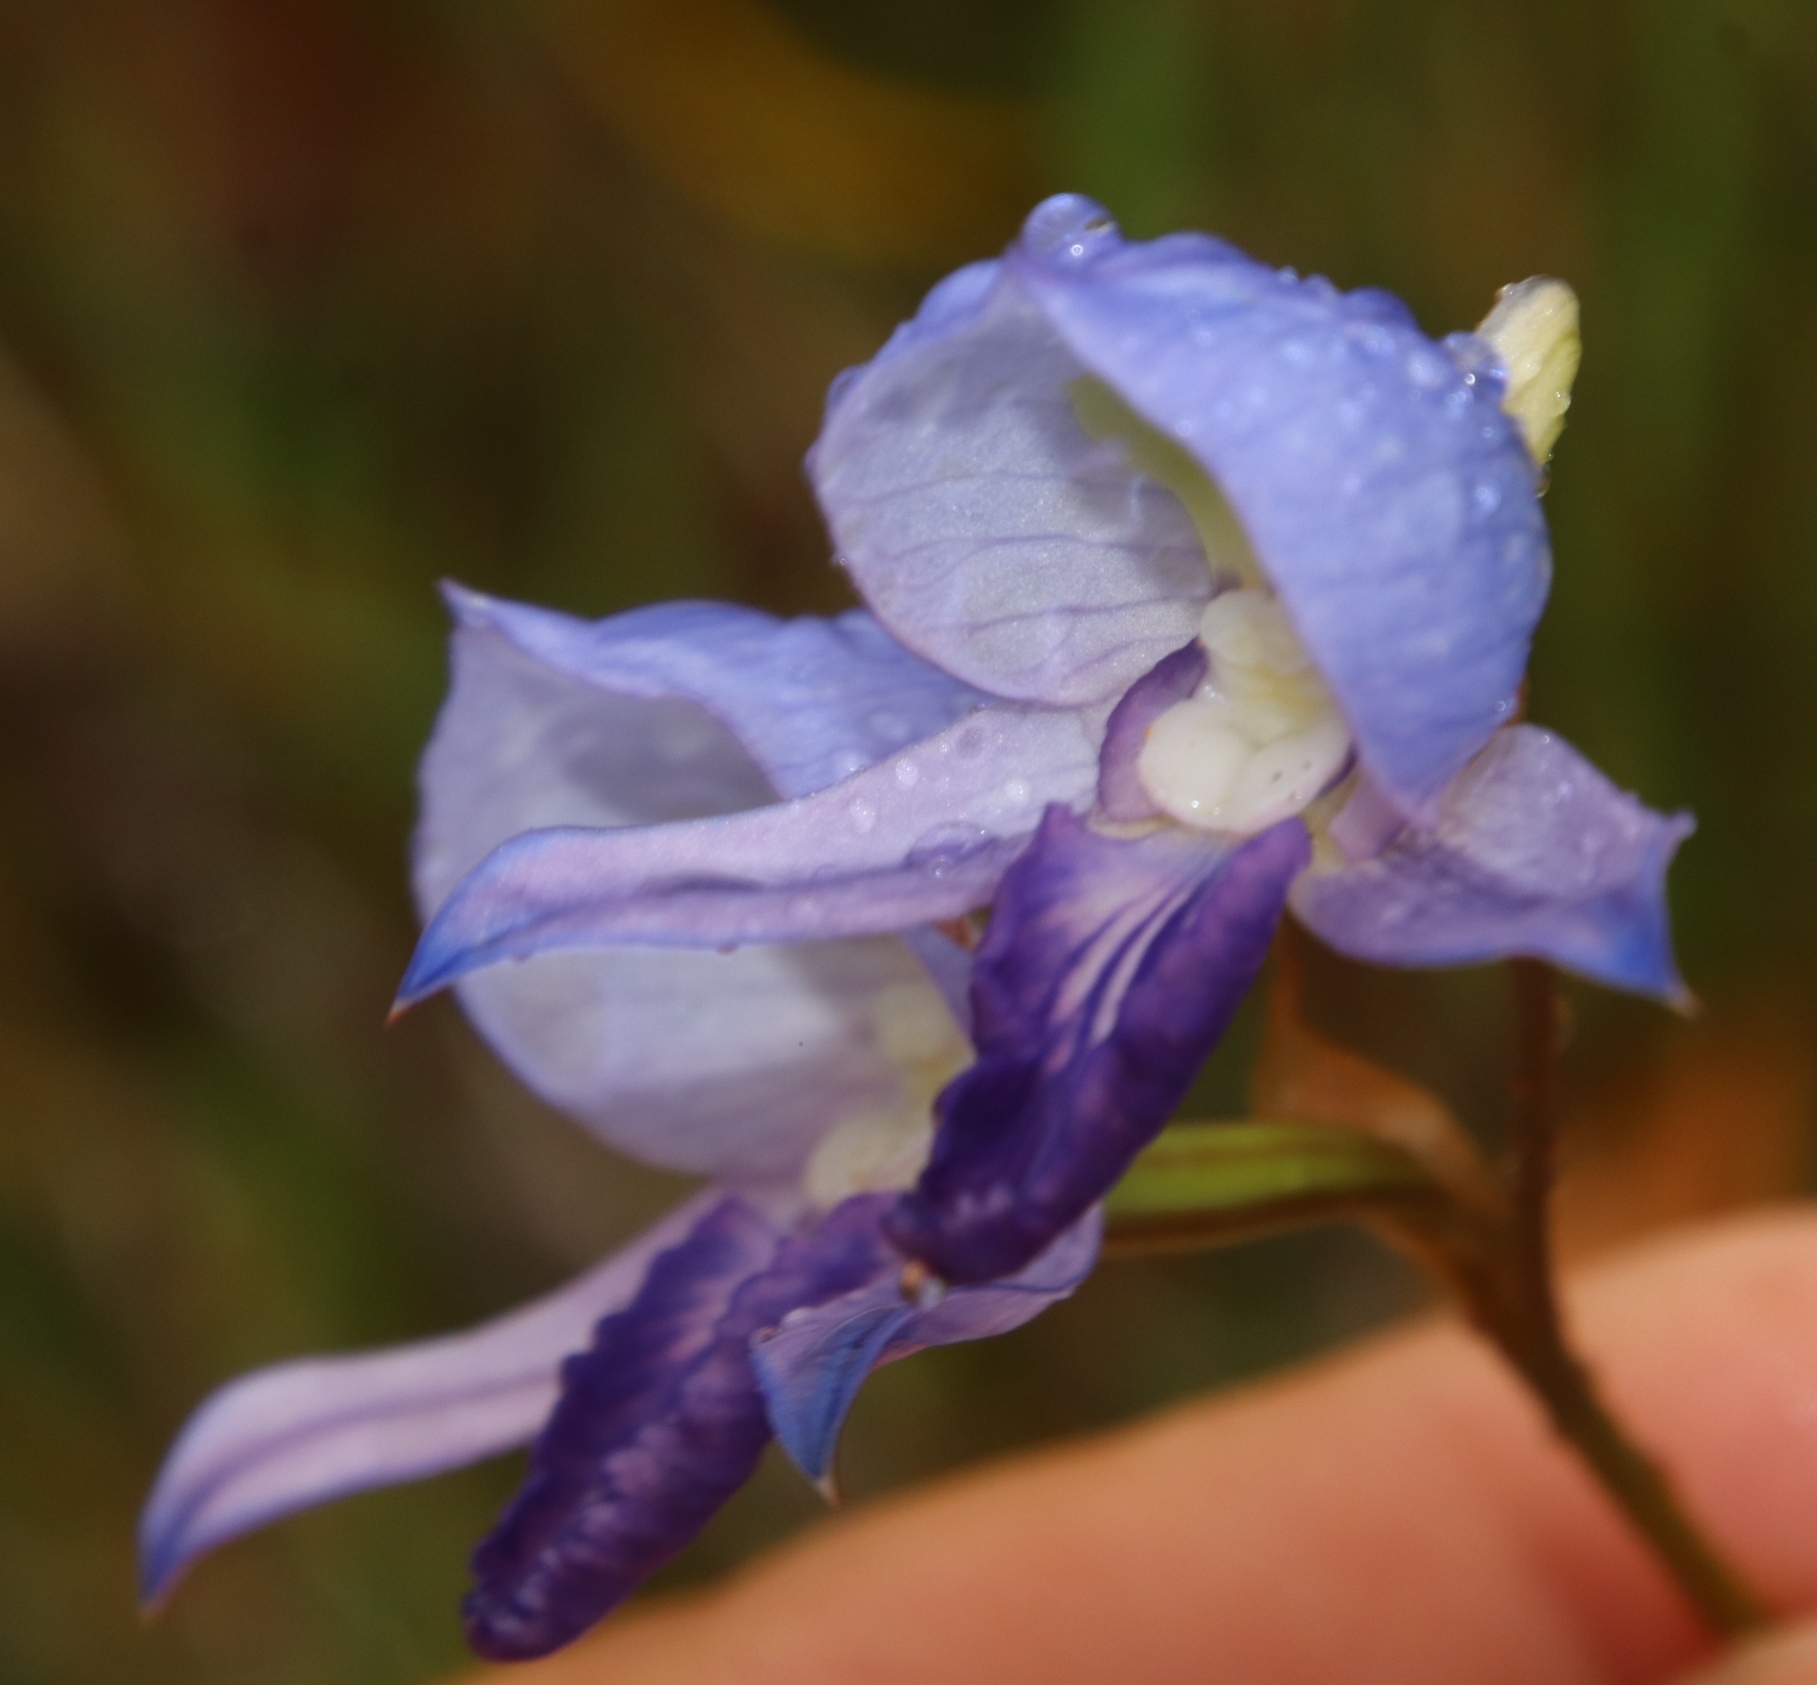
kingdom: Plantae
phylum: Tracheophyta
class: Liliopsida
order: Asparagales
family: Orchidaceae
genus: Disa
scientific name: Disa purpurascens
